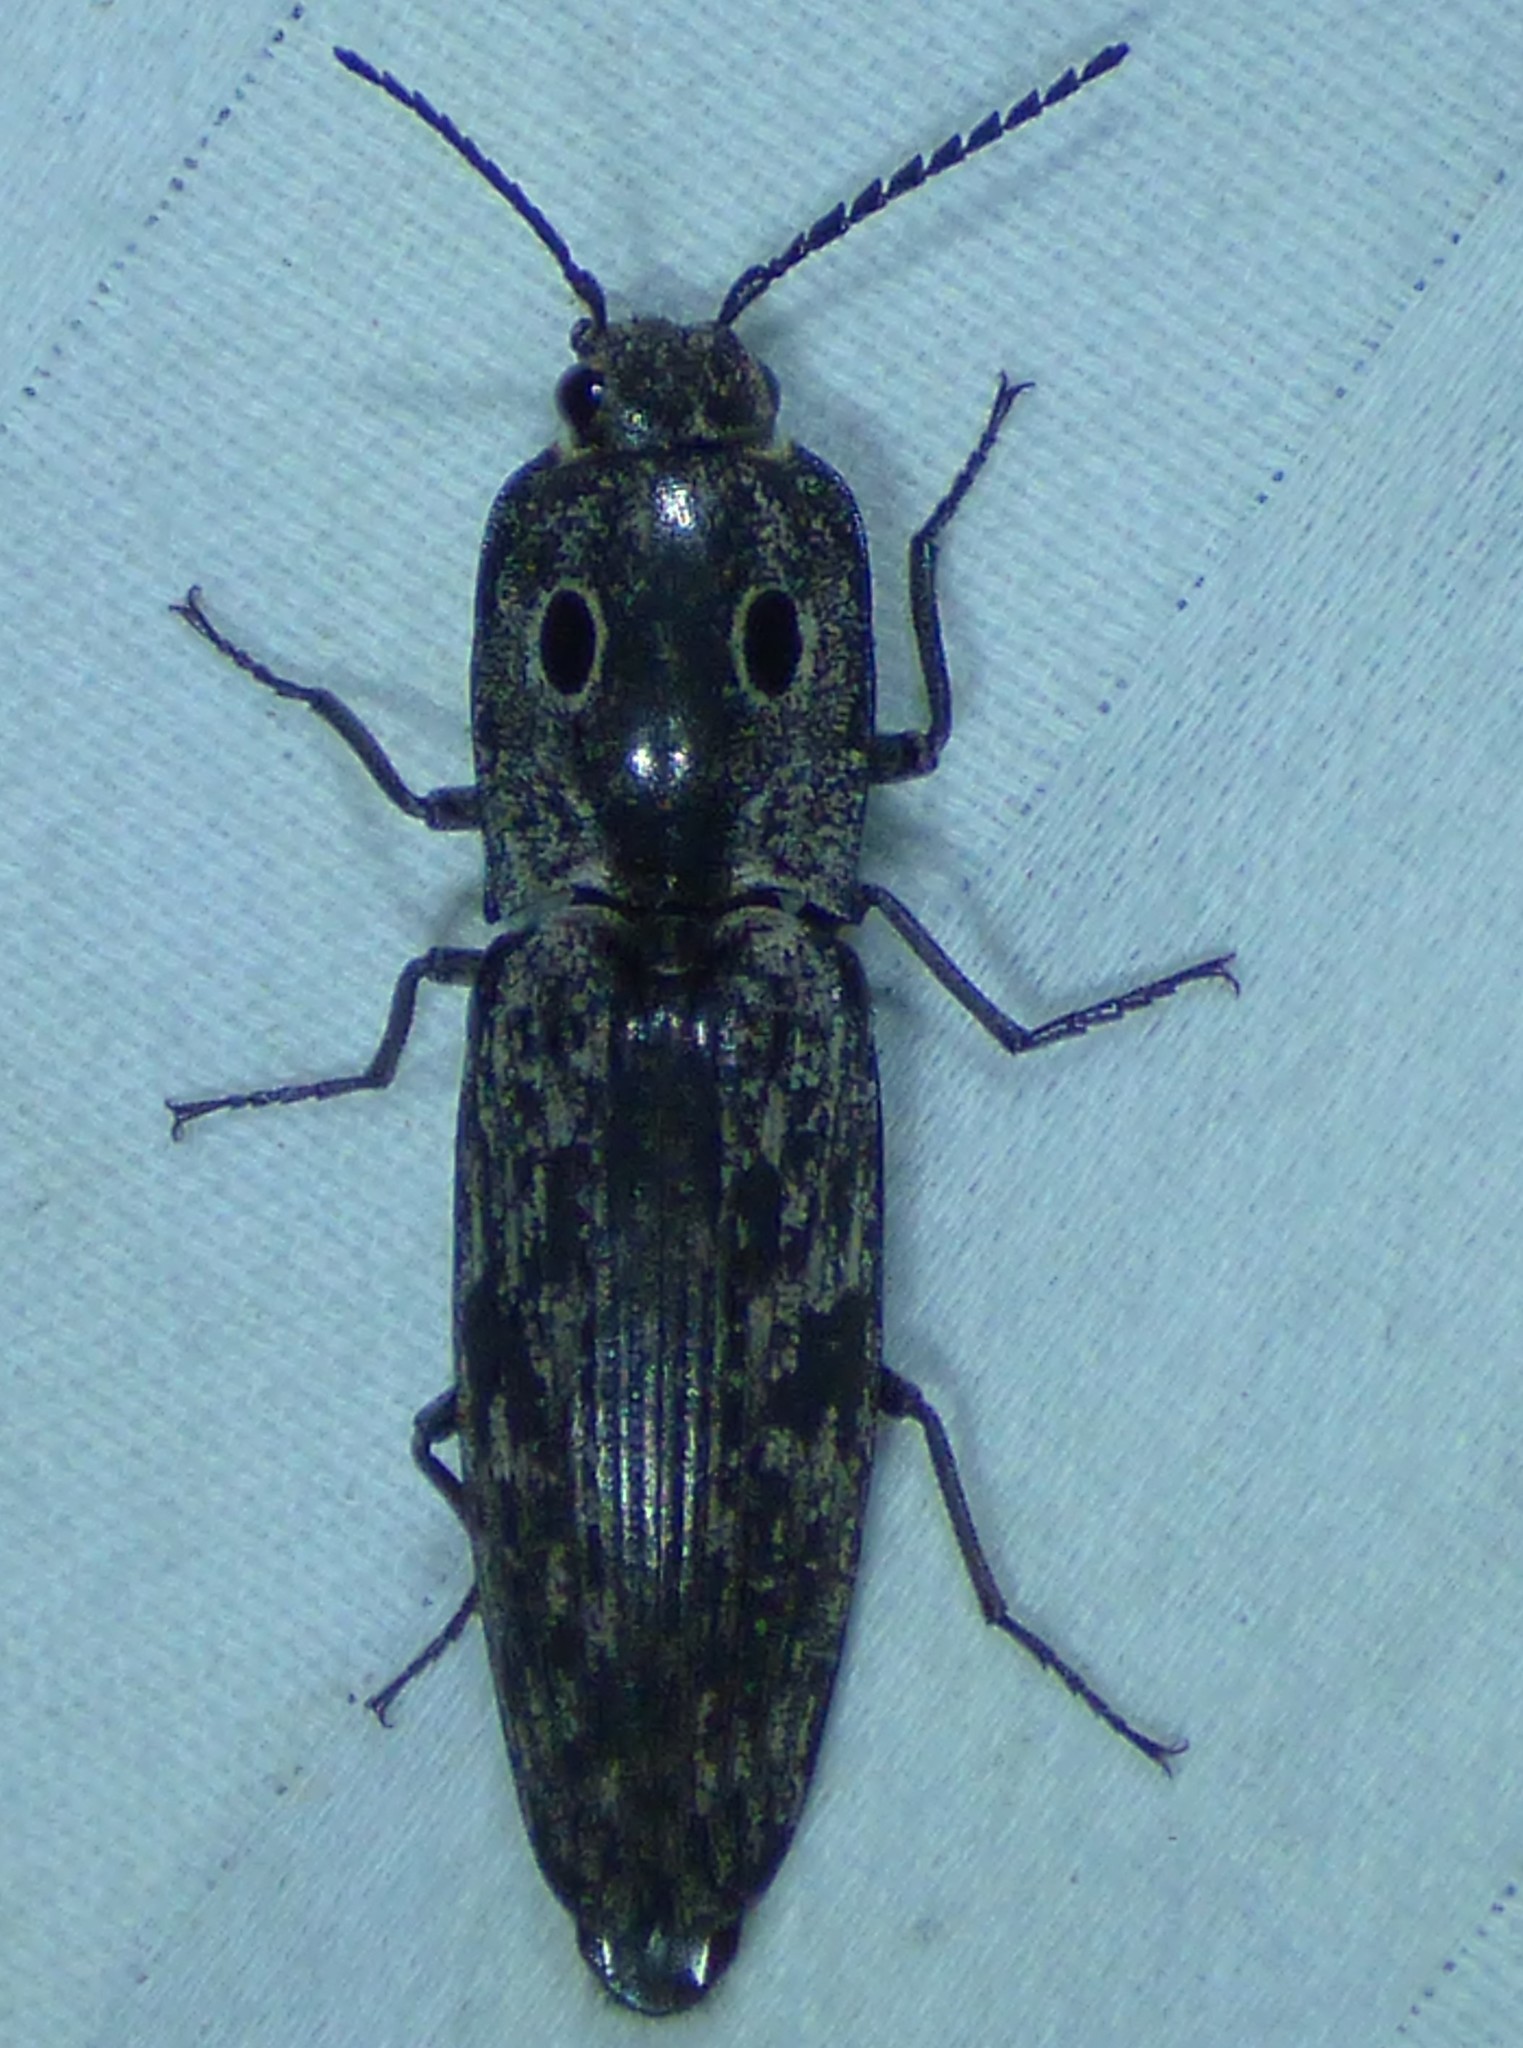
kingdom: Animalia
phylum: Arthropoda
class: Insecta
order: Coleoptera
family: Elateridae
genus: Alaus
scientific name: Alaus myops
